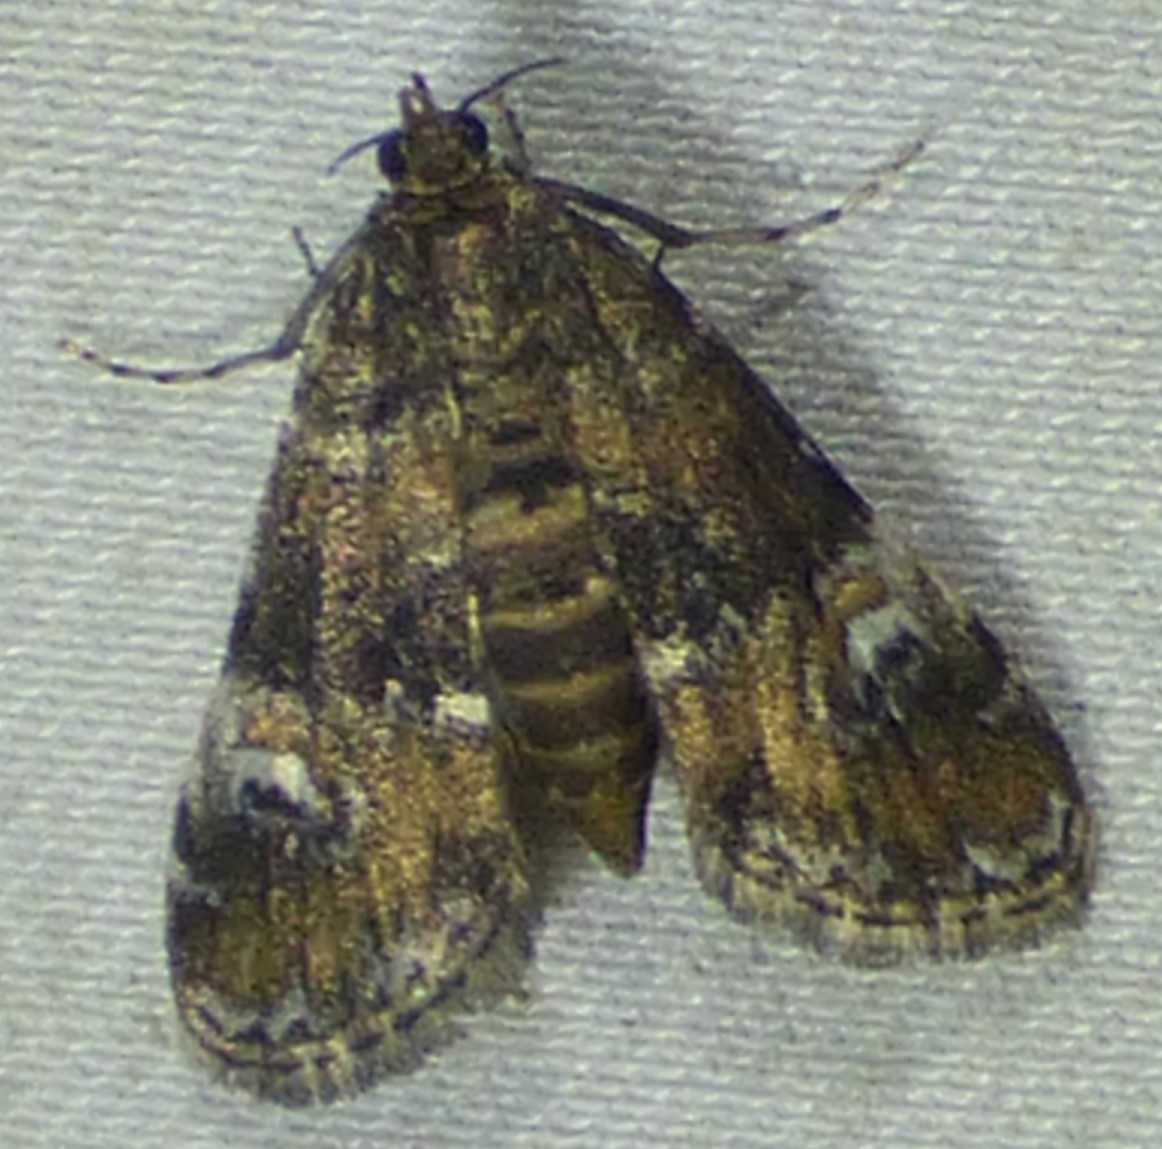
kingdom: Animalia
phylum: Arthropoda
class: Insecta
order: Lepidoptera
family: Crambidae
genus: Elophila
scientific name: Elophila obliteralis
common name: Waterlily leafcutter moth
